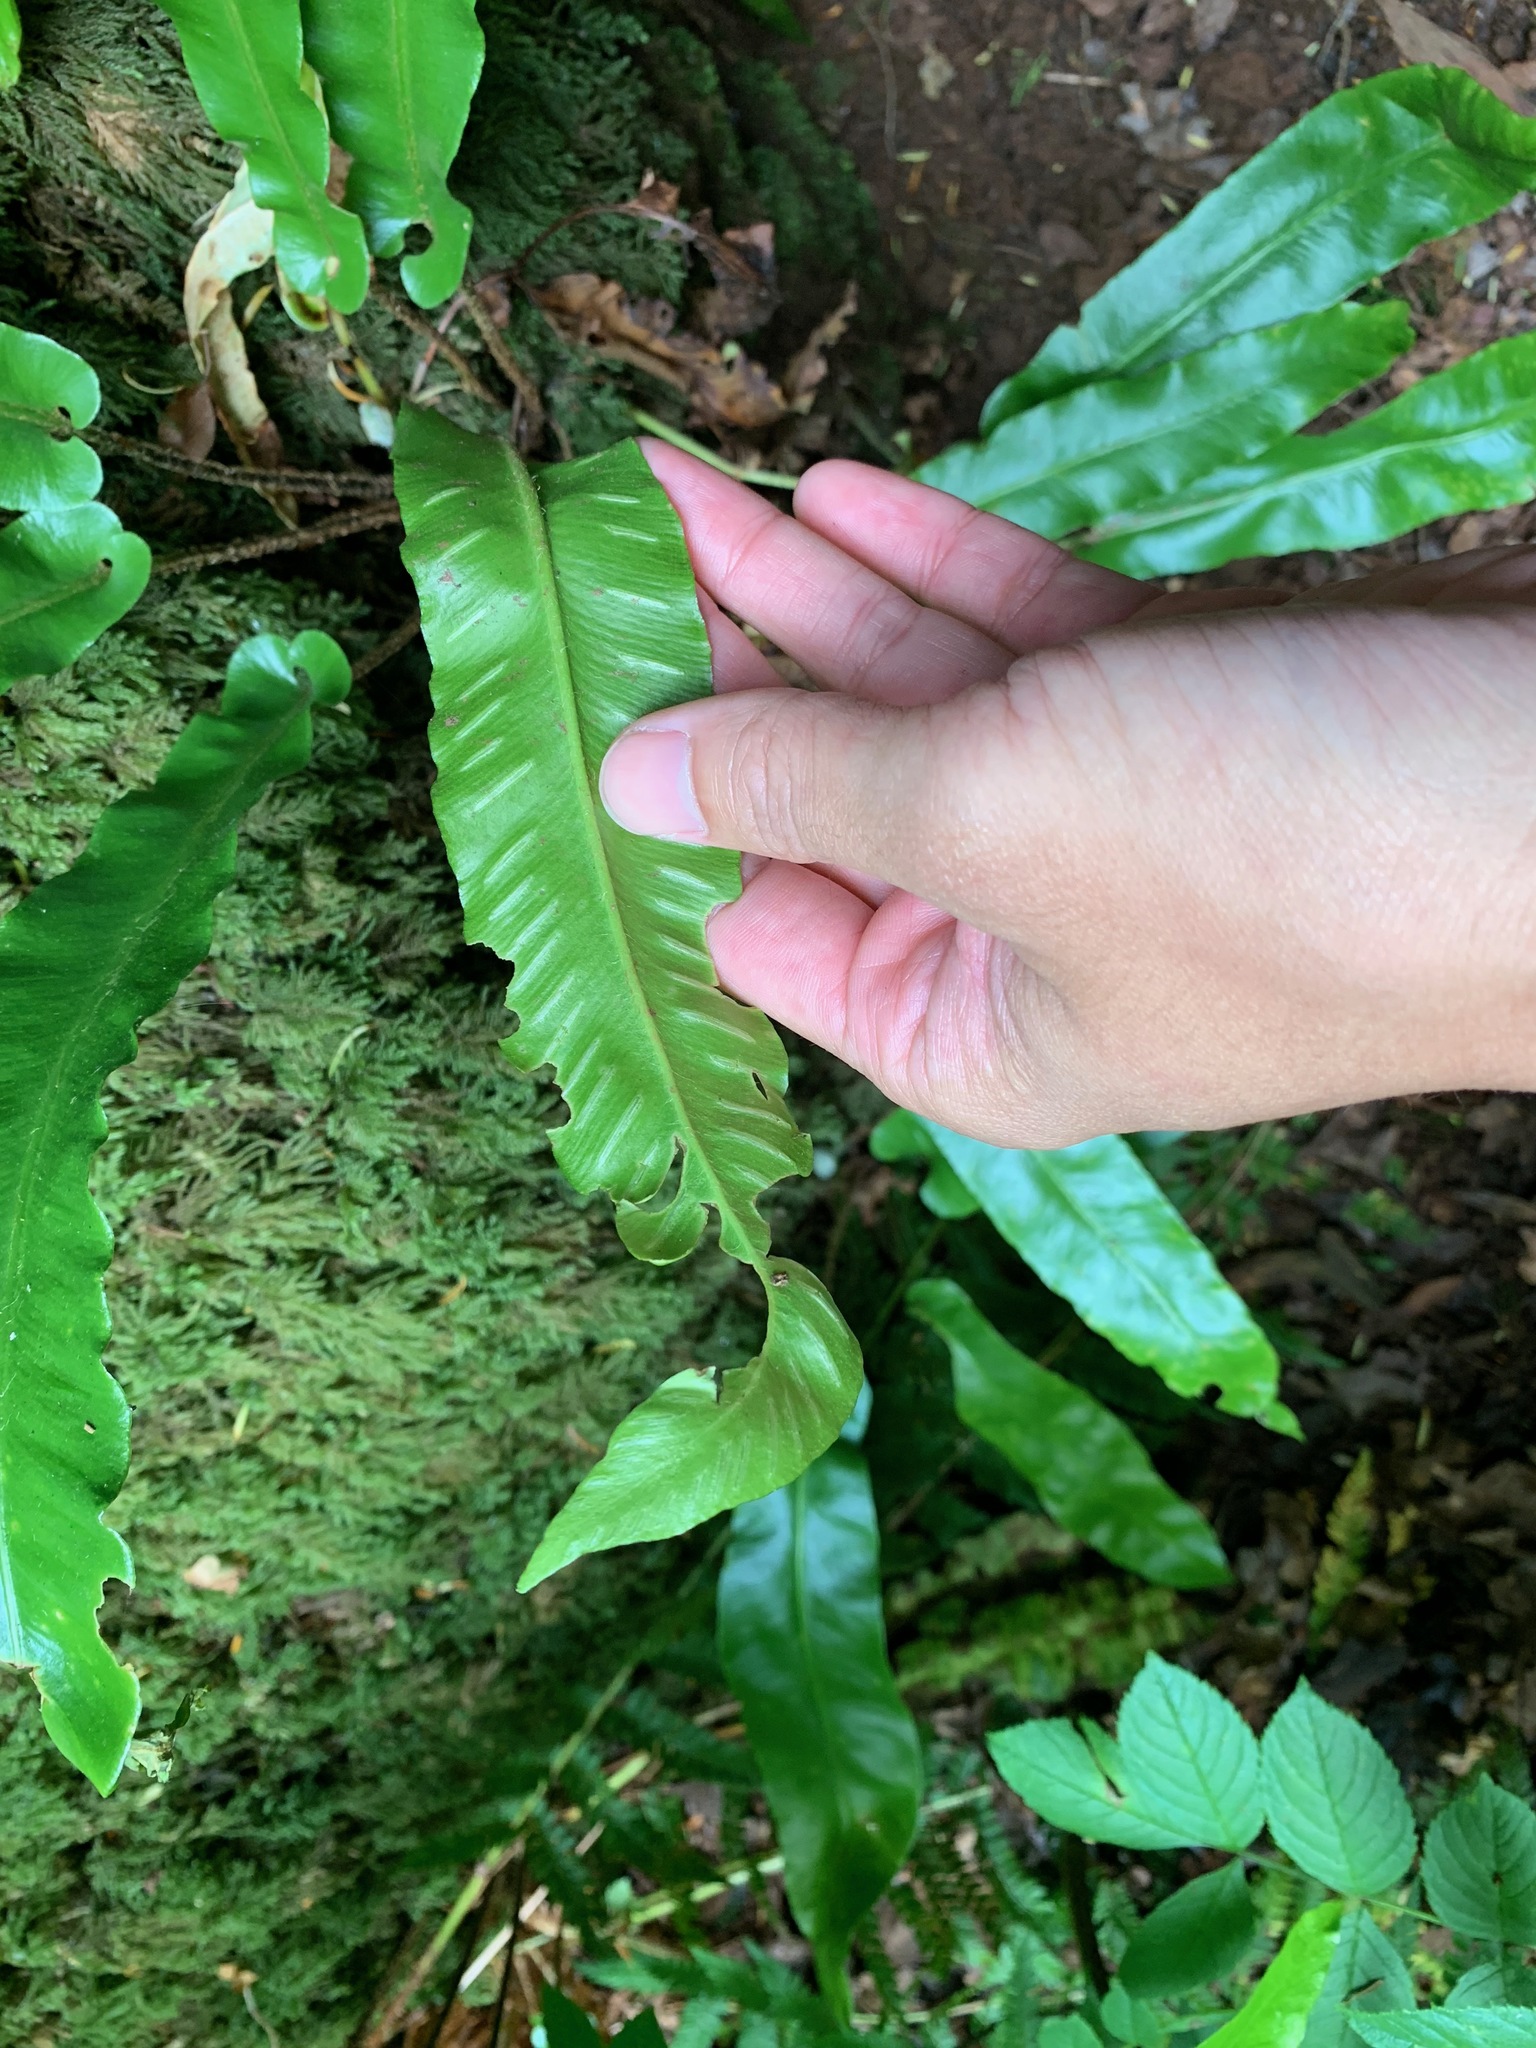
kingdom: Plantae
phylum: Tracheophyta
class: Polypodiopsida
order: Polypodiales
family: Aspleniaceae
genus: Asplenium
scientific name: Asplenium scolopendrium
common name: Hart's-tongue fern
